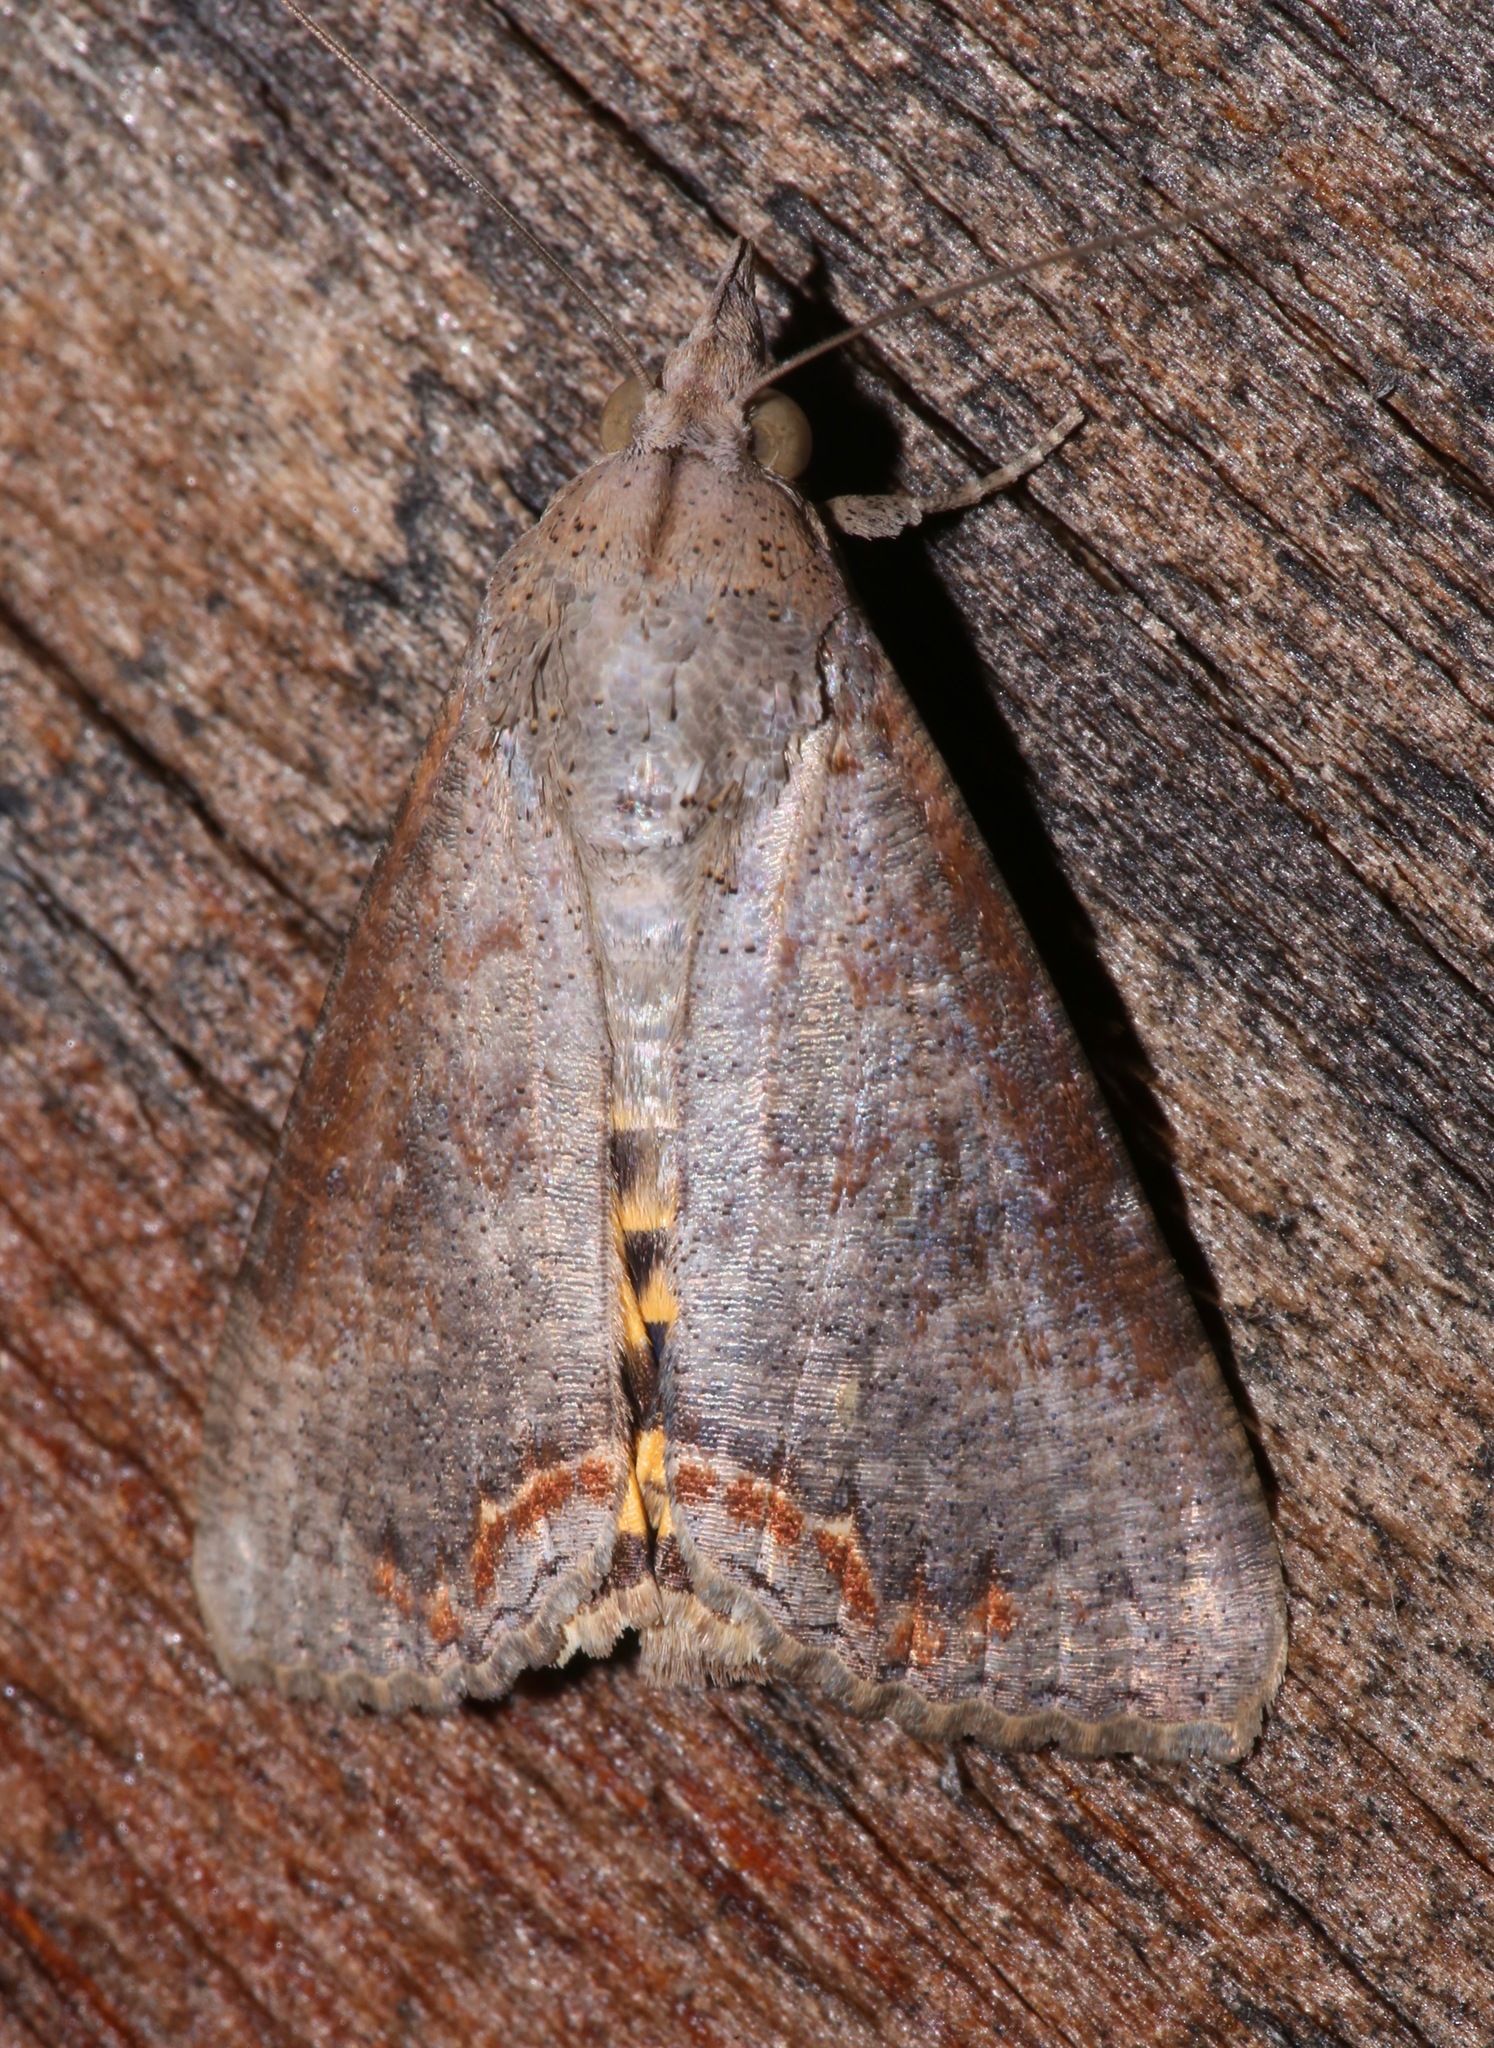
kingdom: Animalia
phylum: Arthropoda
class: Insecta
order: Lepidoptera
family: Erebidae
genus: Hypocala
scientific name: Hypocala andremona
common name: Hypocala moth
